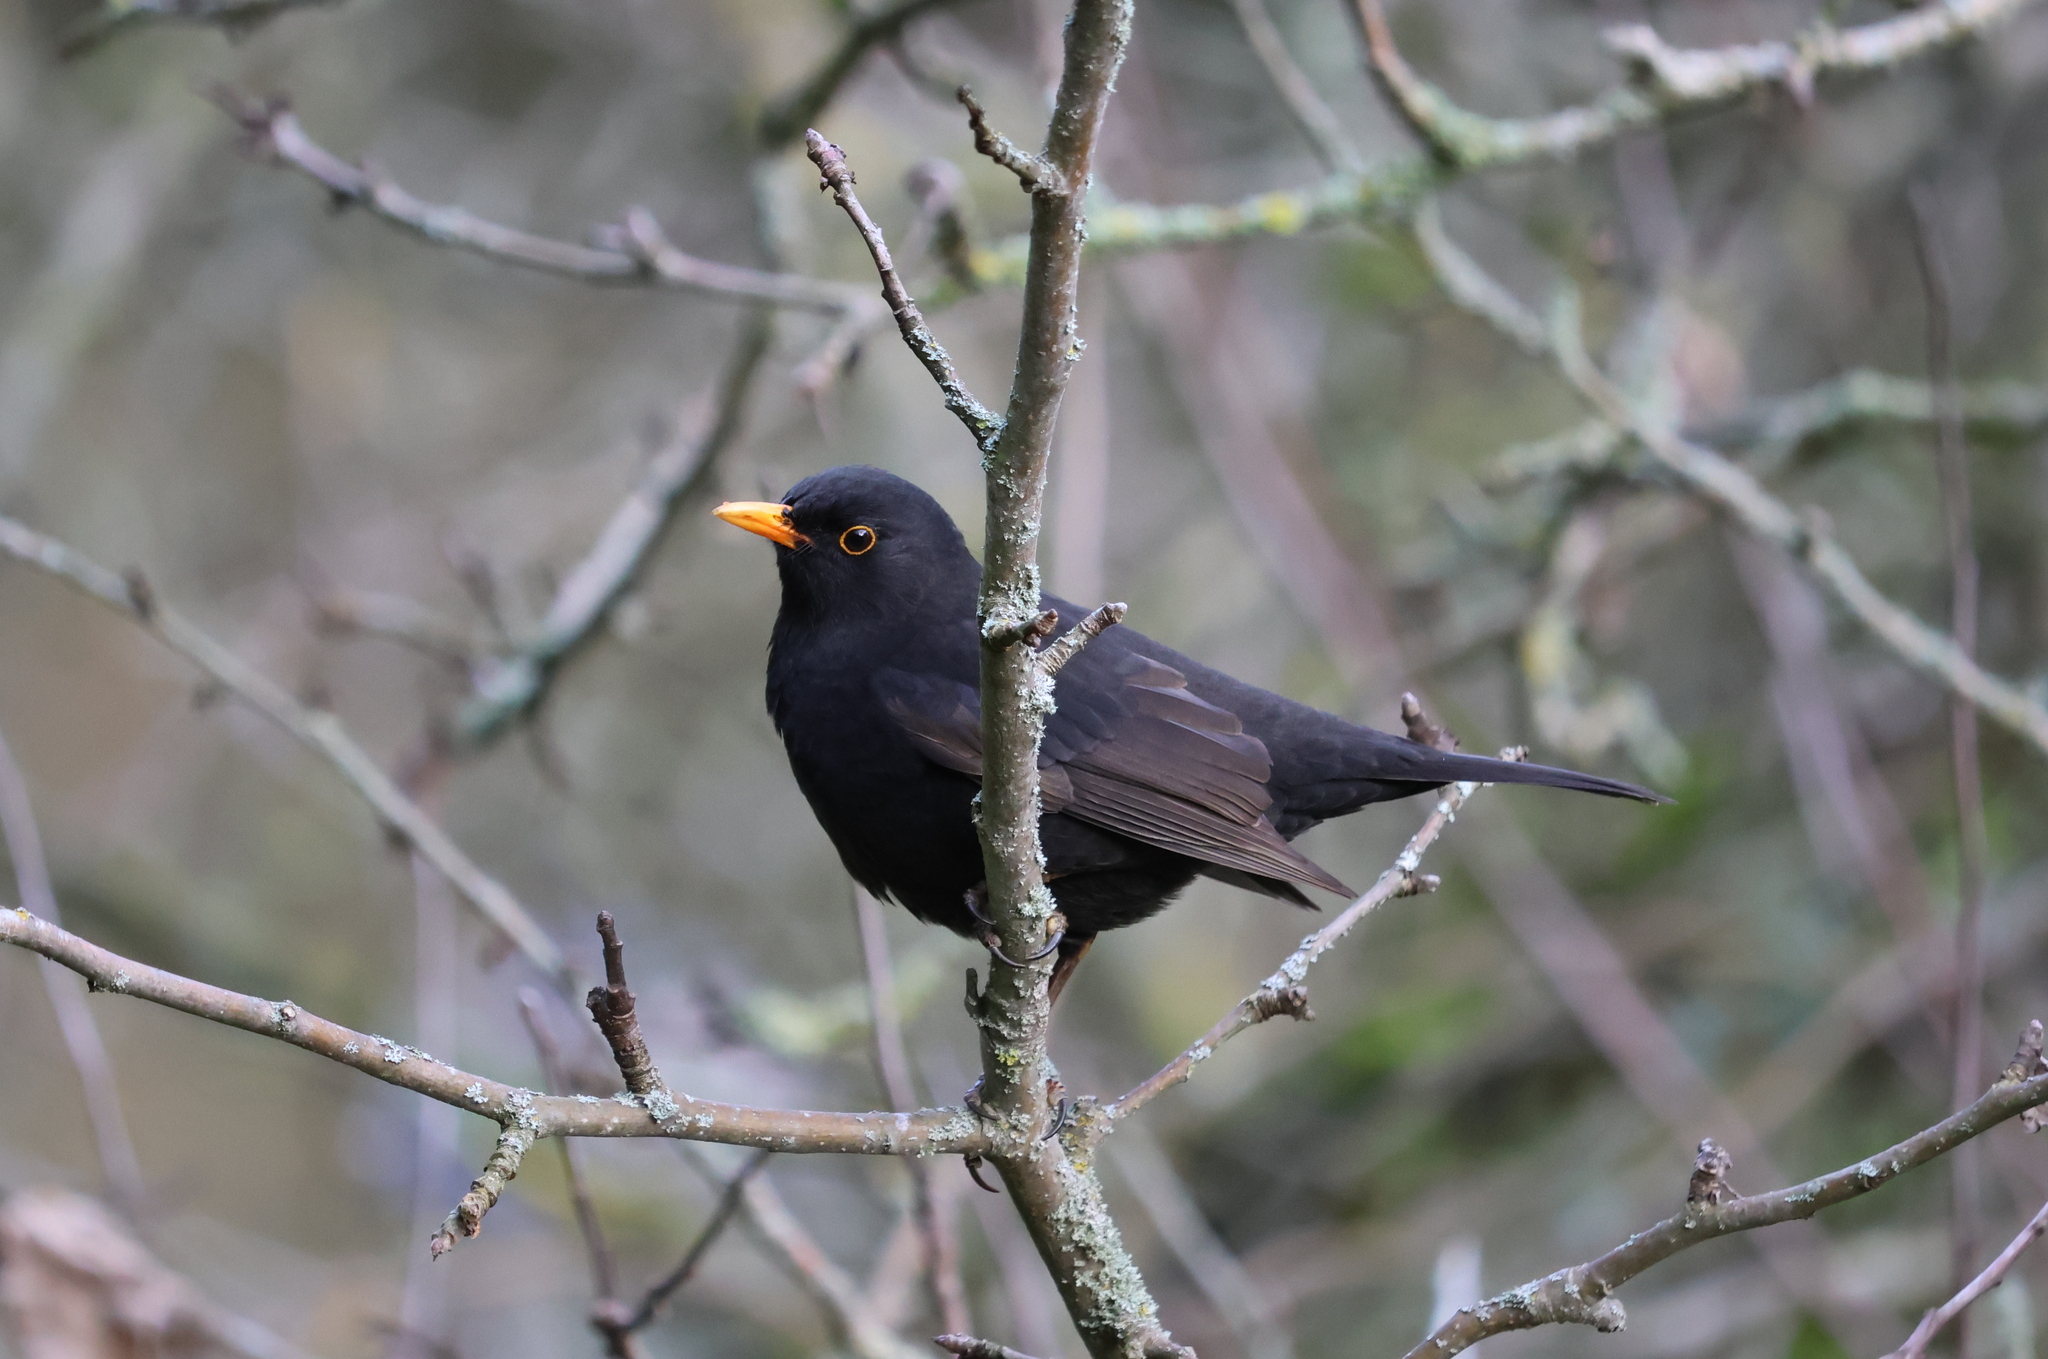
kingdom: Animalia
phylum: Chordata
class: Aves
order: Passeriformes
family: Turdidae
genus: Turdus
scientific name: Turdus merula
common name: Common blackbird
